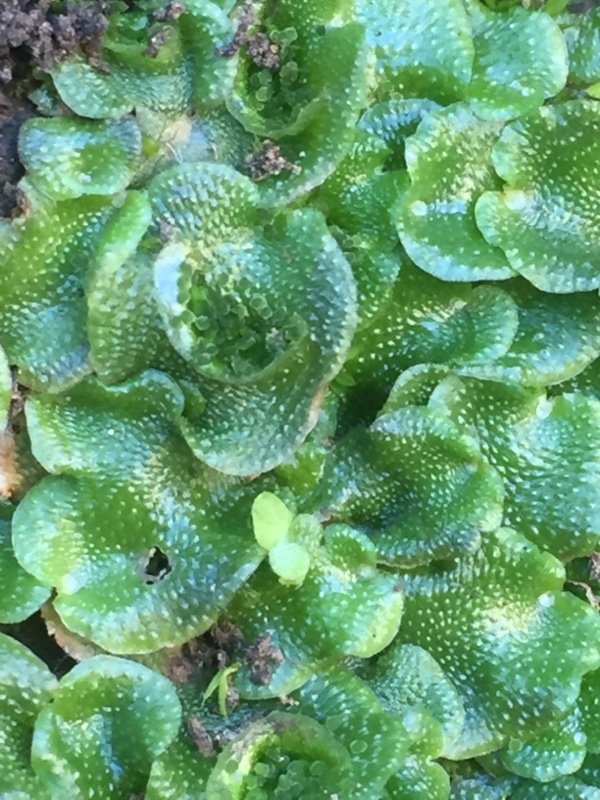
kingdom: Plantae
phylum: Marchantiophyta
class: Marchantiopsida
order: Lunulariales
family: Lunulariaceae
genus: Lunularia
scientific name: Lunularia cruciata
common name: Crescent-cup liverwort
